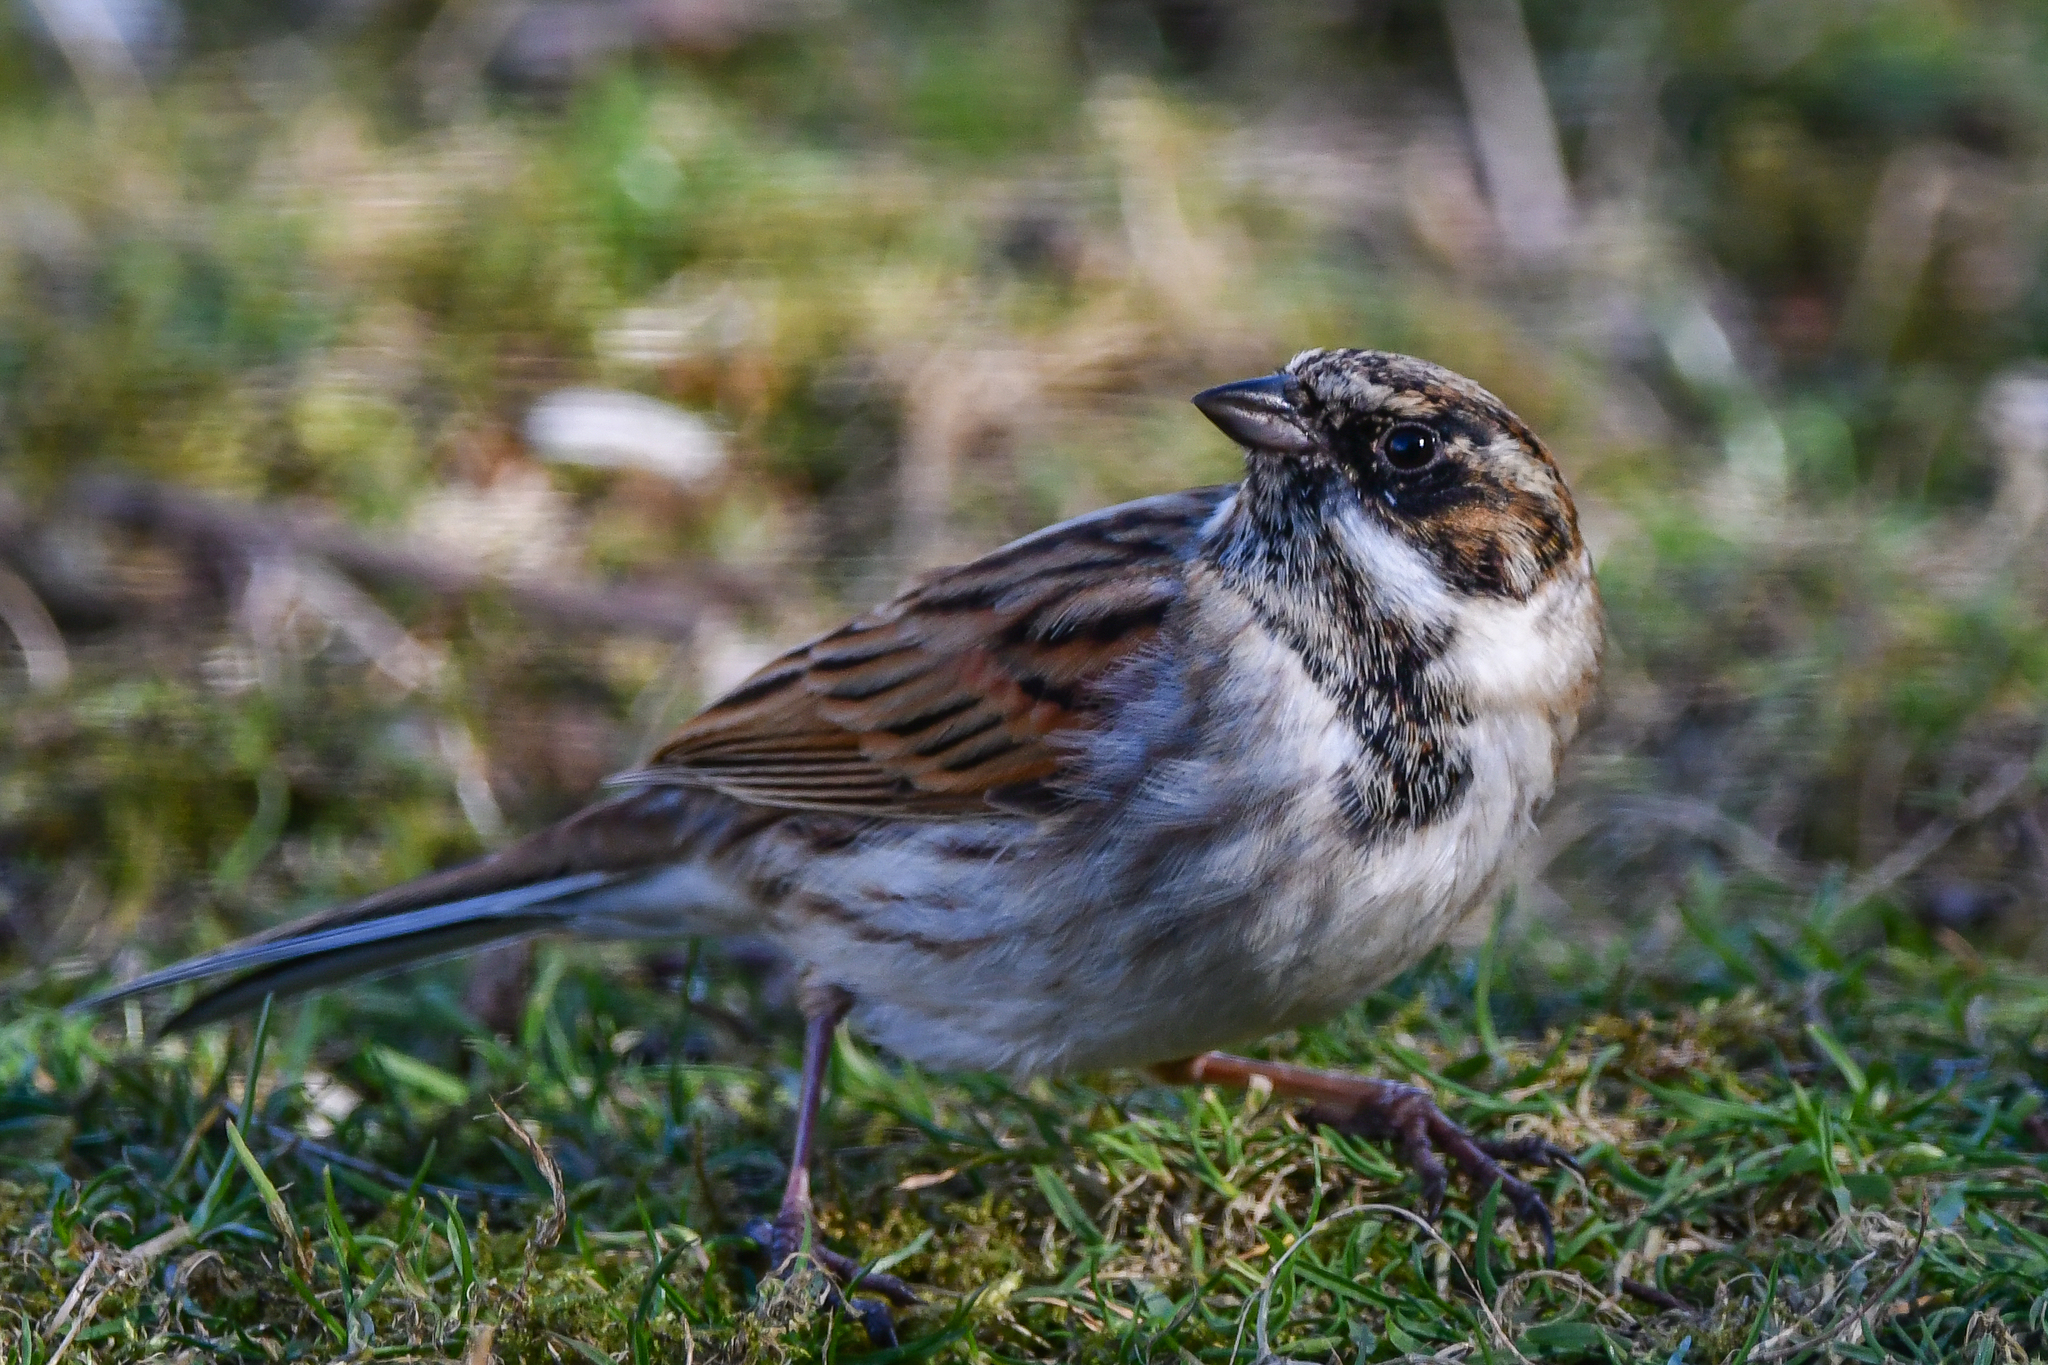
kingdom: Animalia
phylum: Chordata
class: Aves
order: Passeriformes
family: Emberizidae
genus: Emberiza
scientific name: Emberiza schoeniclus
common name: Reed bunting
